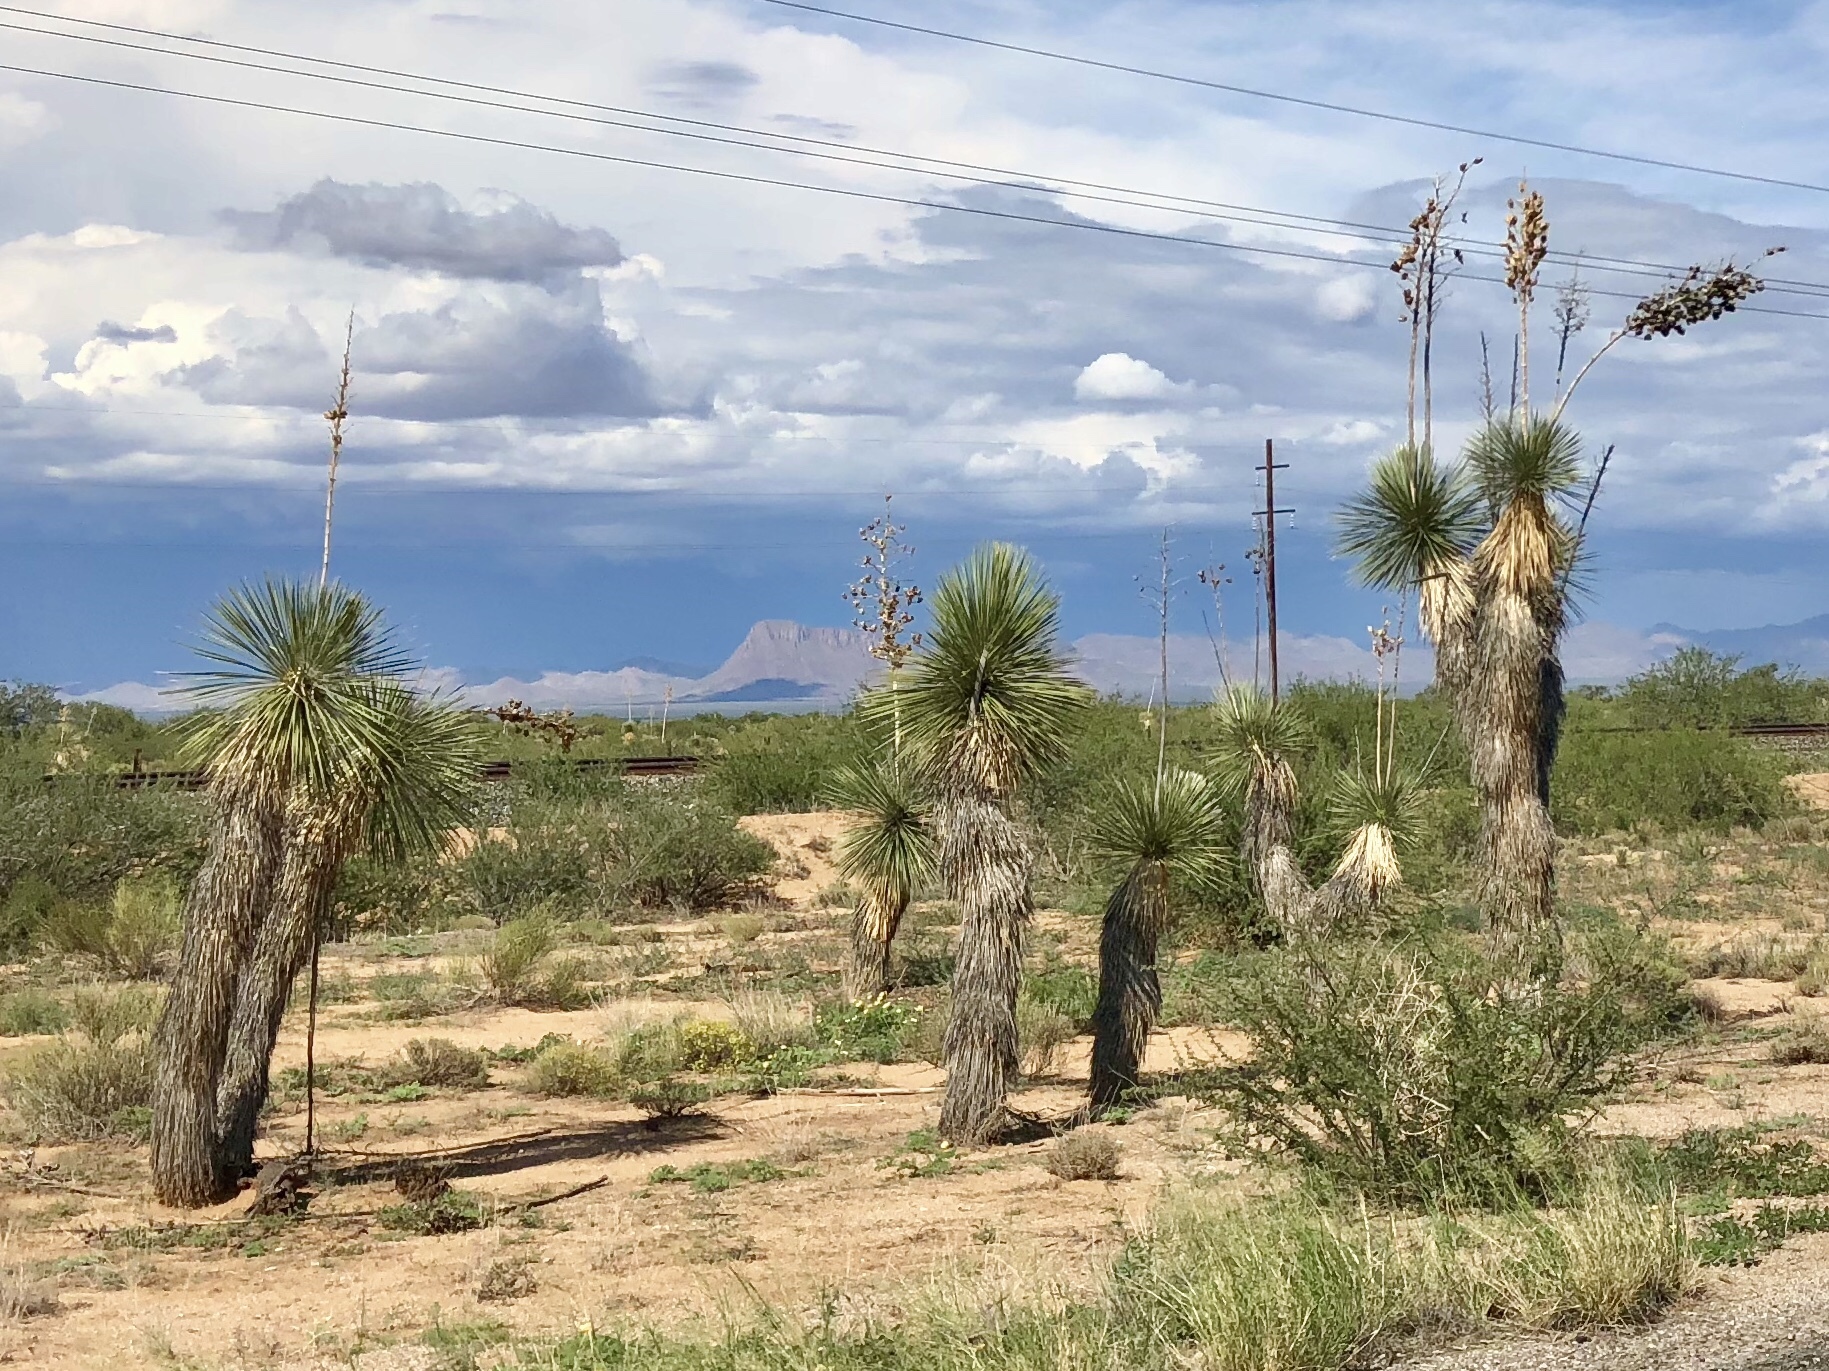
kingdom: Plantae
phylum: Tracheophyta
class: Liliopsida
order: Asparagales
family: Asparagaceae
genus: Yucca
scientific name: Yucca elata
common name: Palmella
